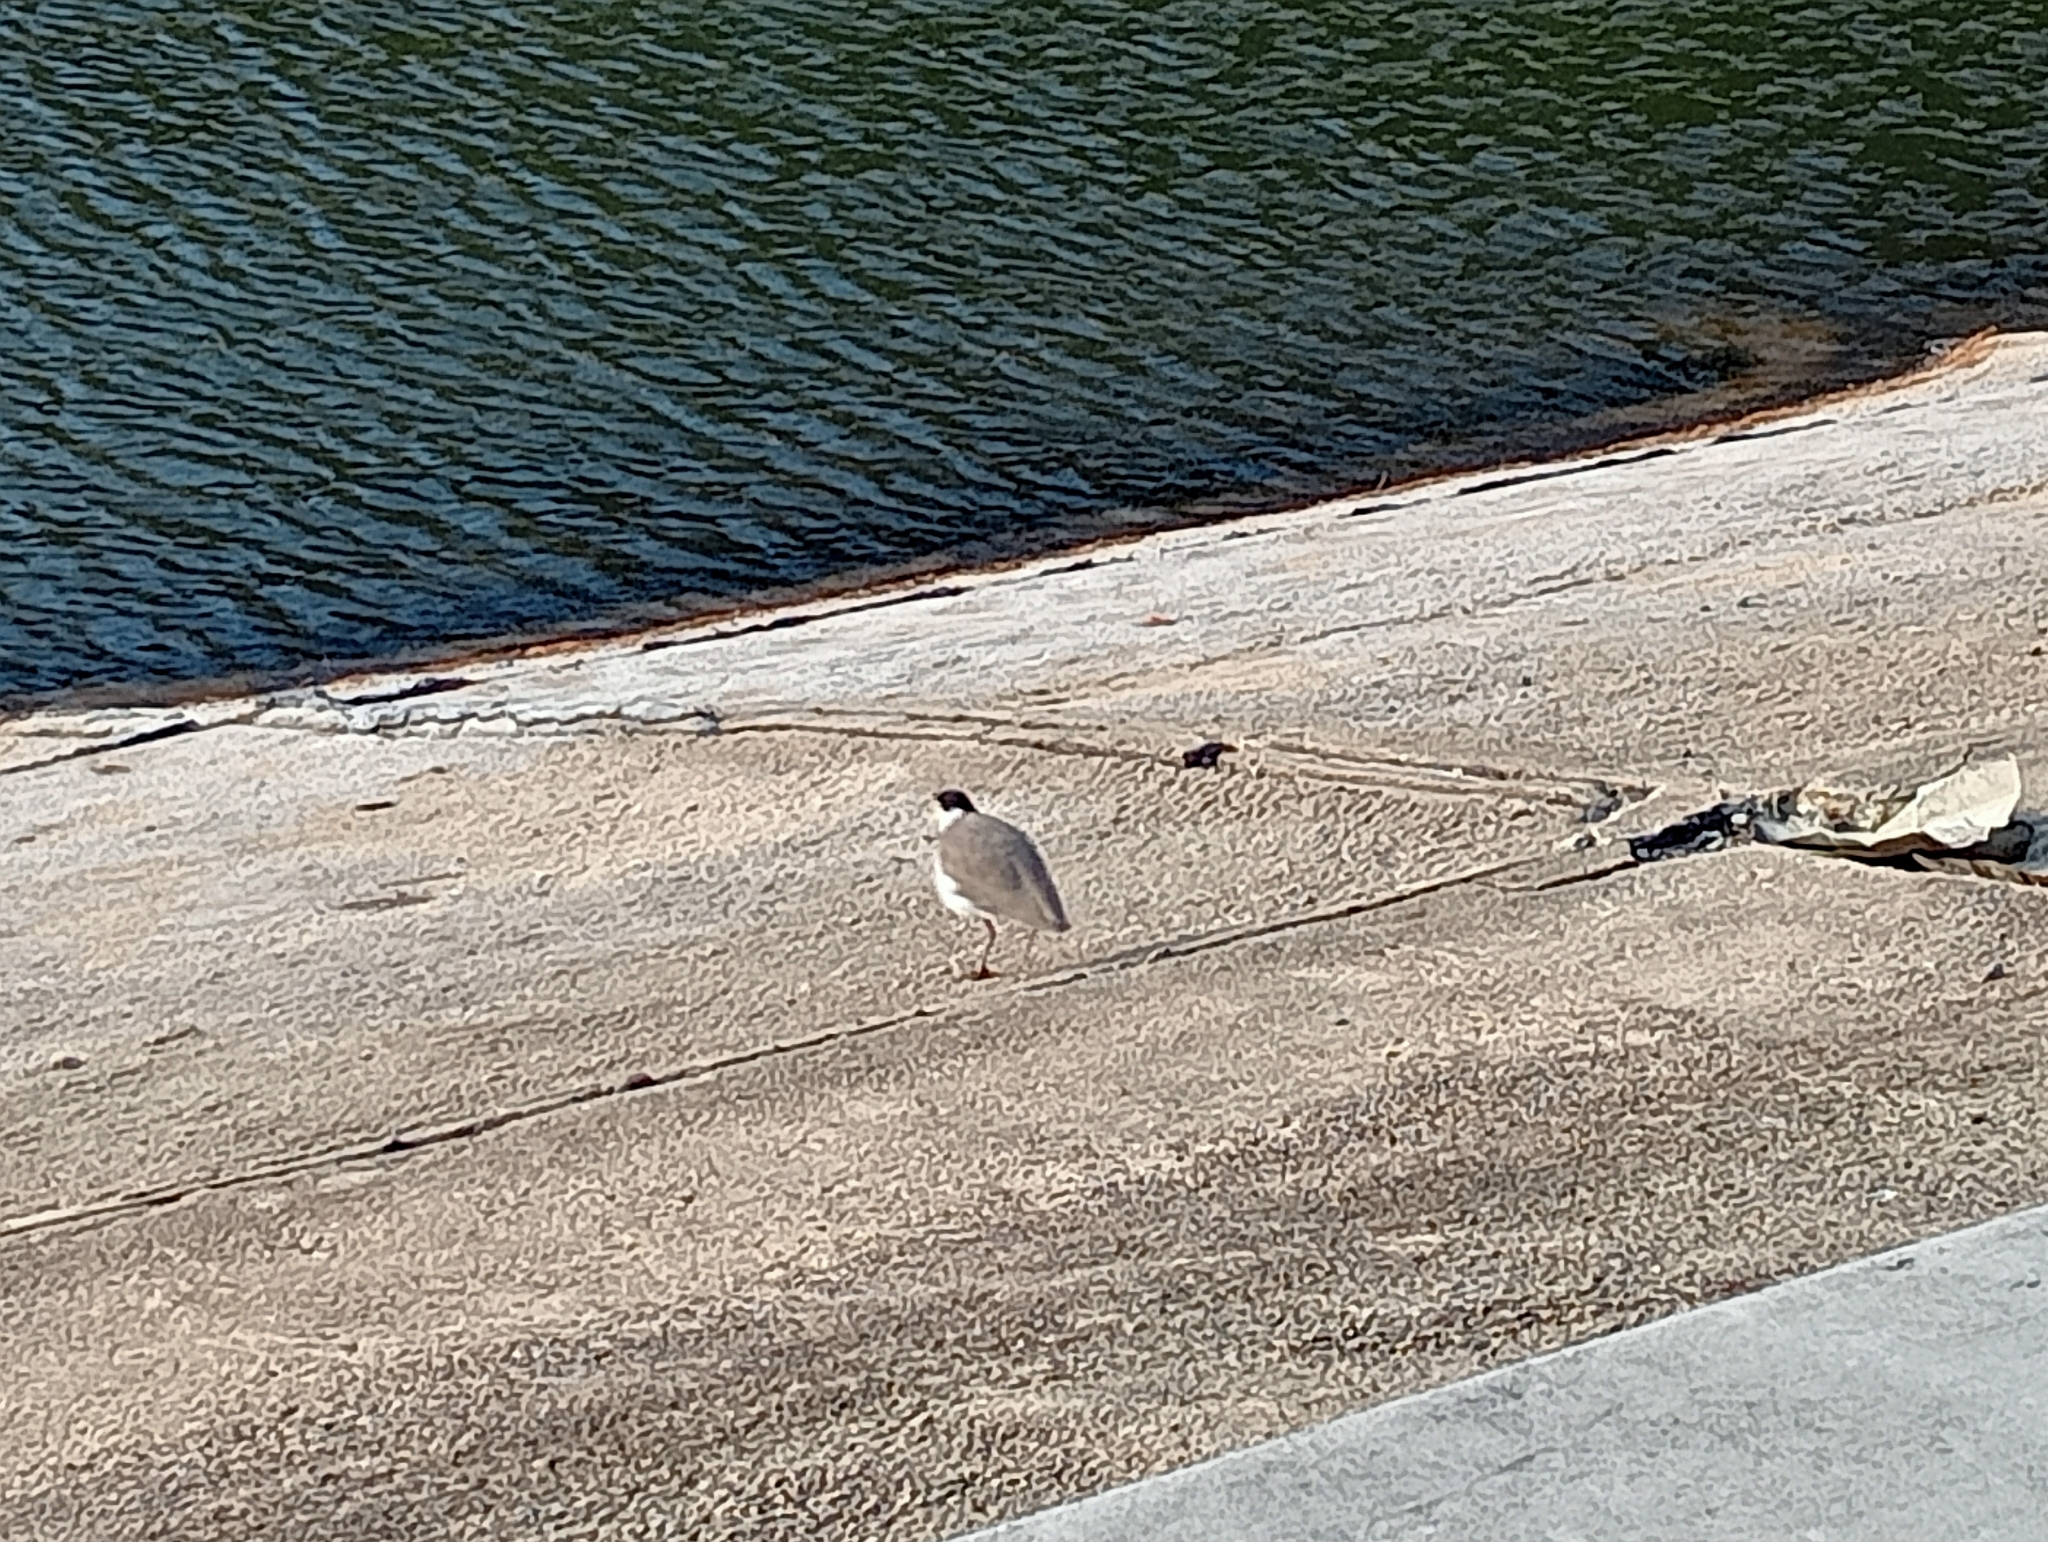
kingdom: Animalia
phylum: Chordata
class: Aves
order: Charadriiformes
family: Charadriidae
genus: Vanellus
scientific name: Vanellus miles
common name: Masked lapwing
